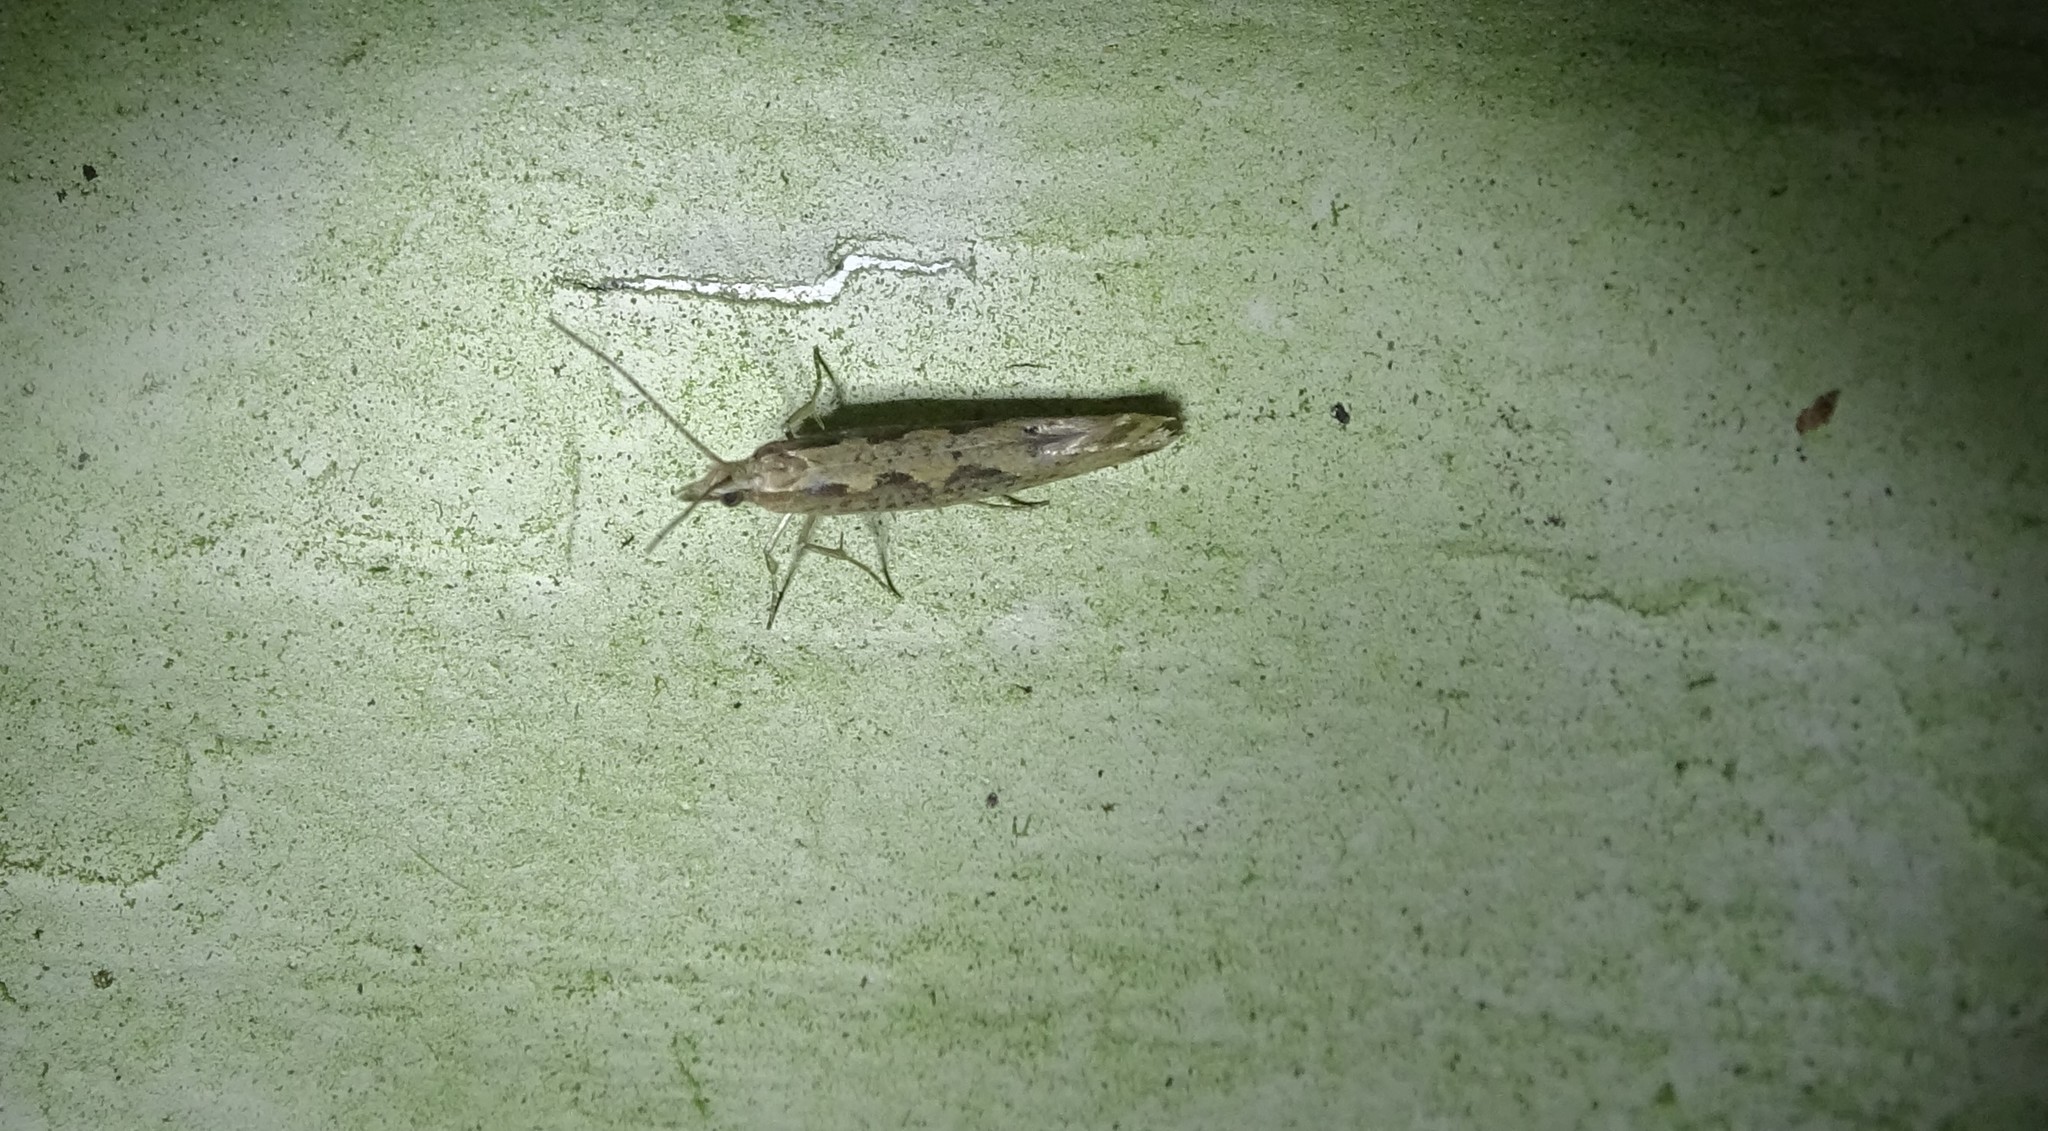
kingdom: Animalia
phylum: Arthropoda
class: Insecta
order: Lepidoptera
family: Plutellidae
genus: Plutella
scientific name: Plutella xylostella
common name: Diamond-back moth
